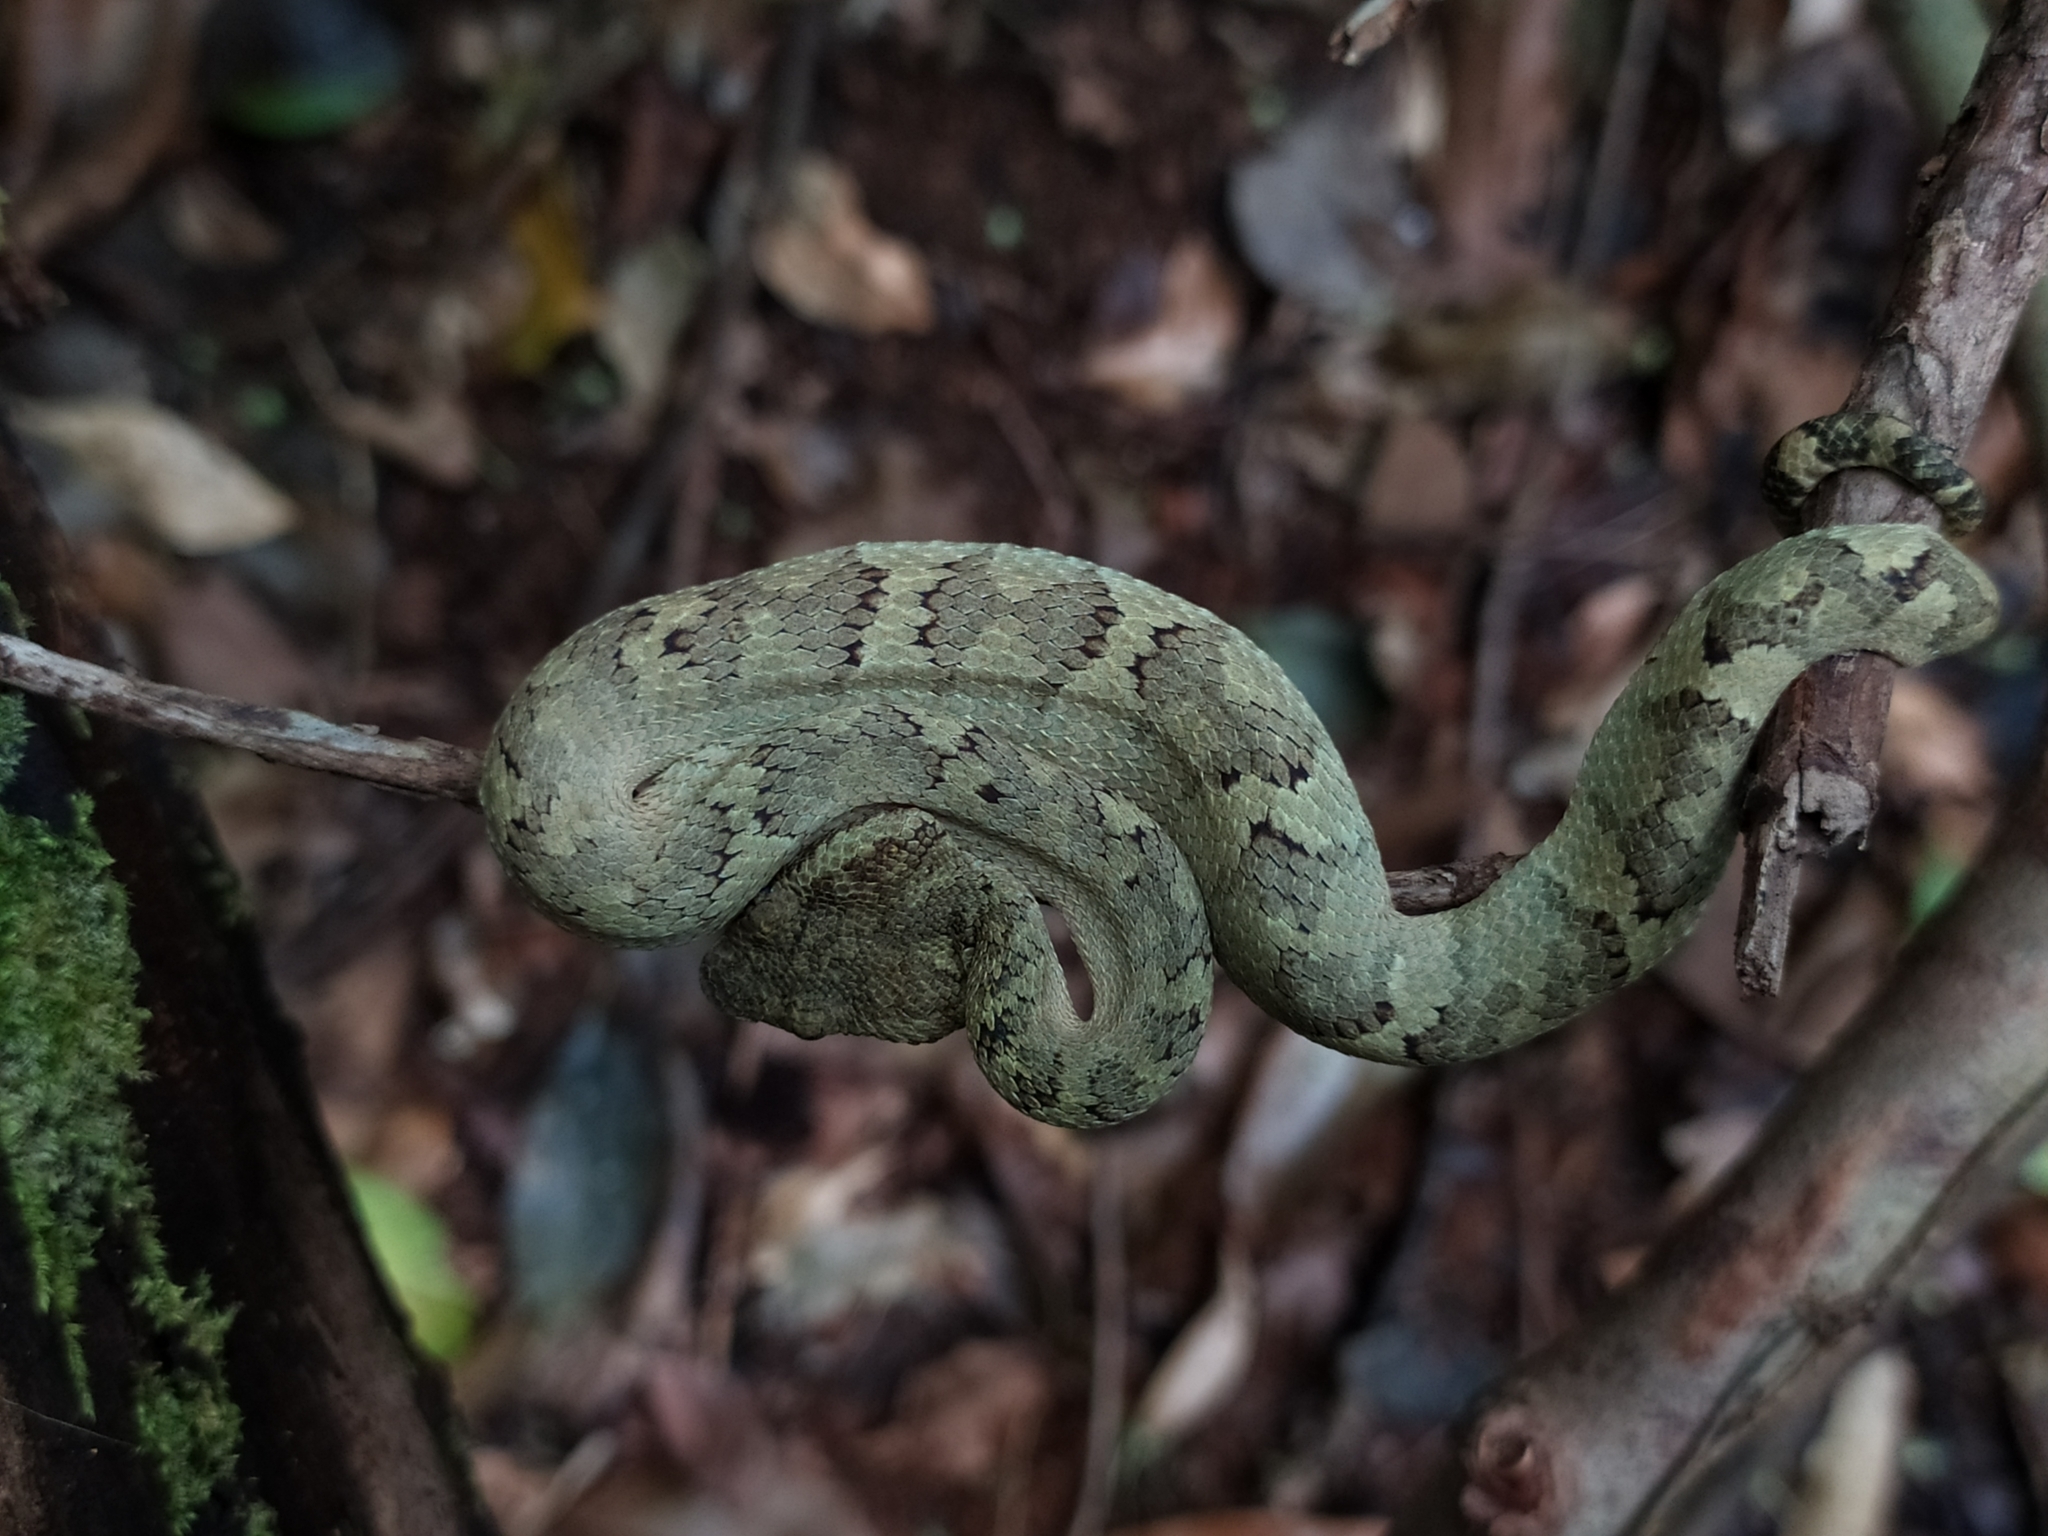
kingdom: Animalia
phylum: Chordata
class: Squamata
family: Viperidae
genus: Craspedocephalus
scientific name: Craspedocephalus malabaricus
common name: Malabarian pit viper
